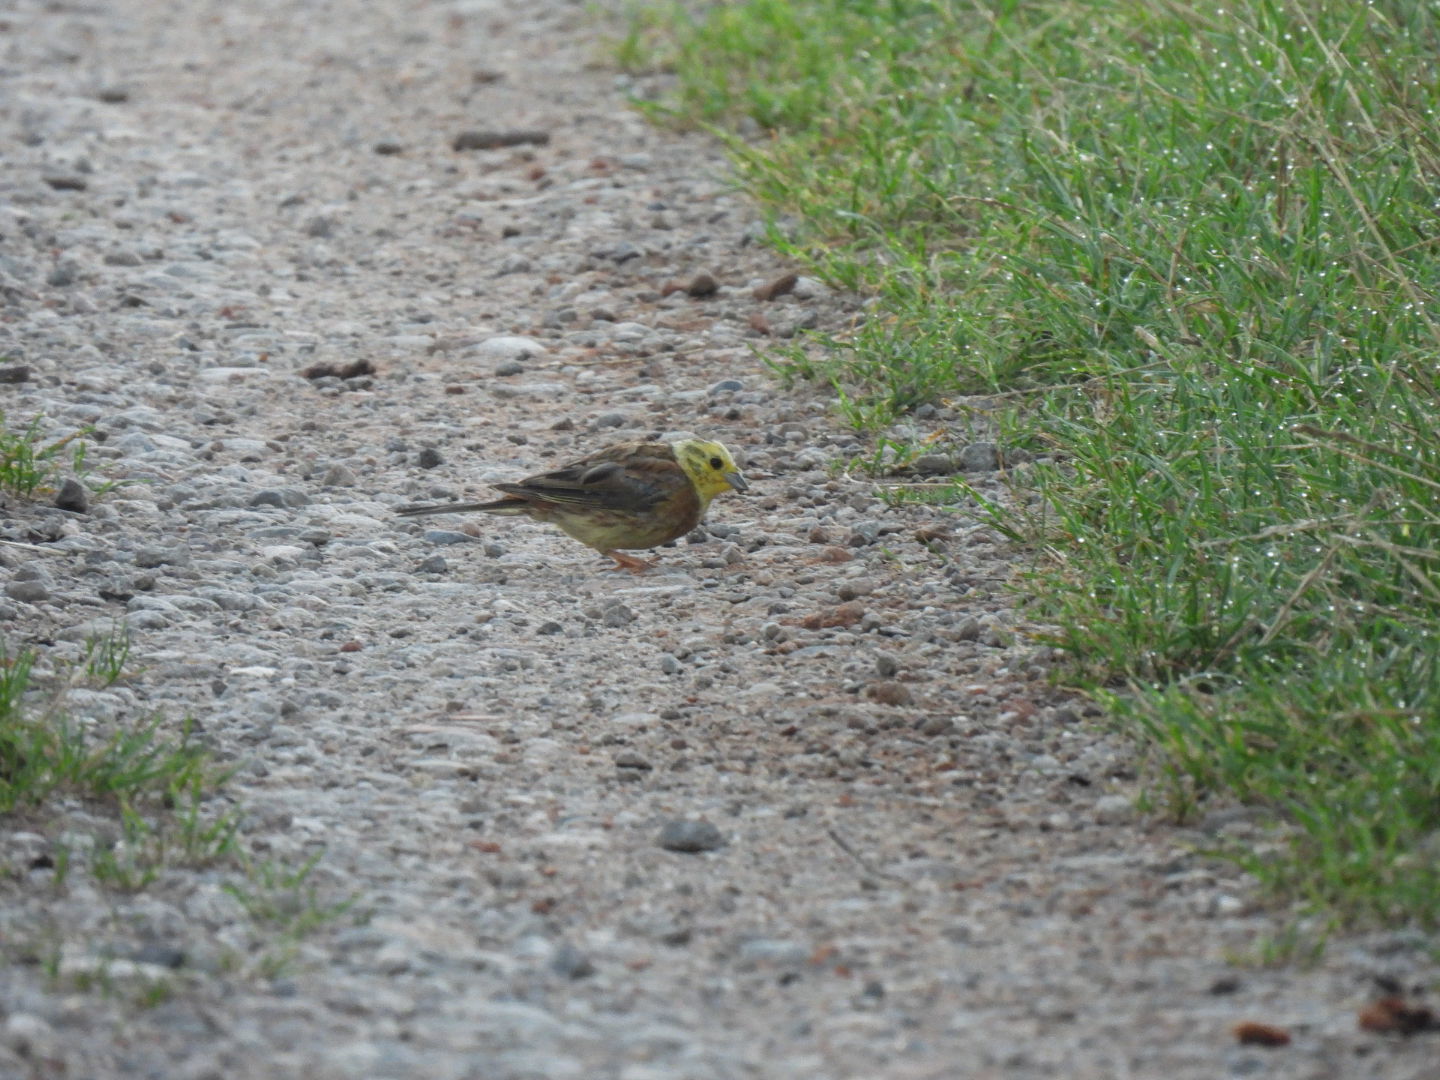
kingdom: Animalia
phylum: Chordata
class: Aves
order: Passeriformes
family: Emberizidae
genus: Emberiza
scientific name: Emberiza citrinella
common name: Yellowhammer
